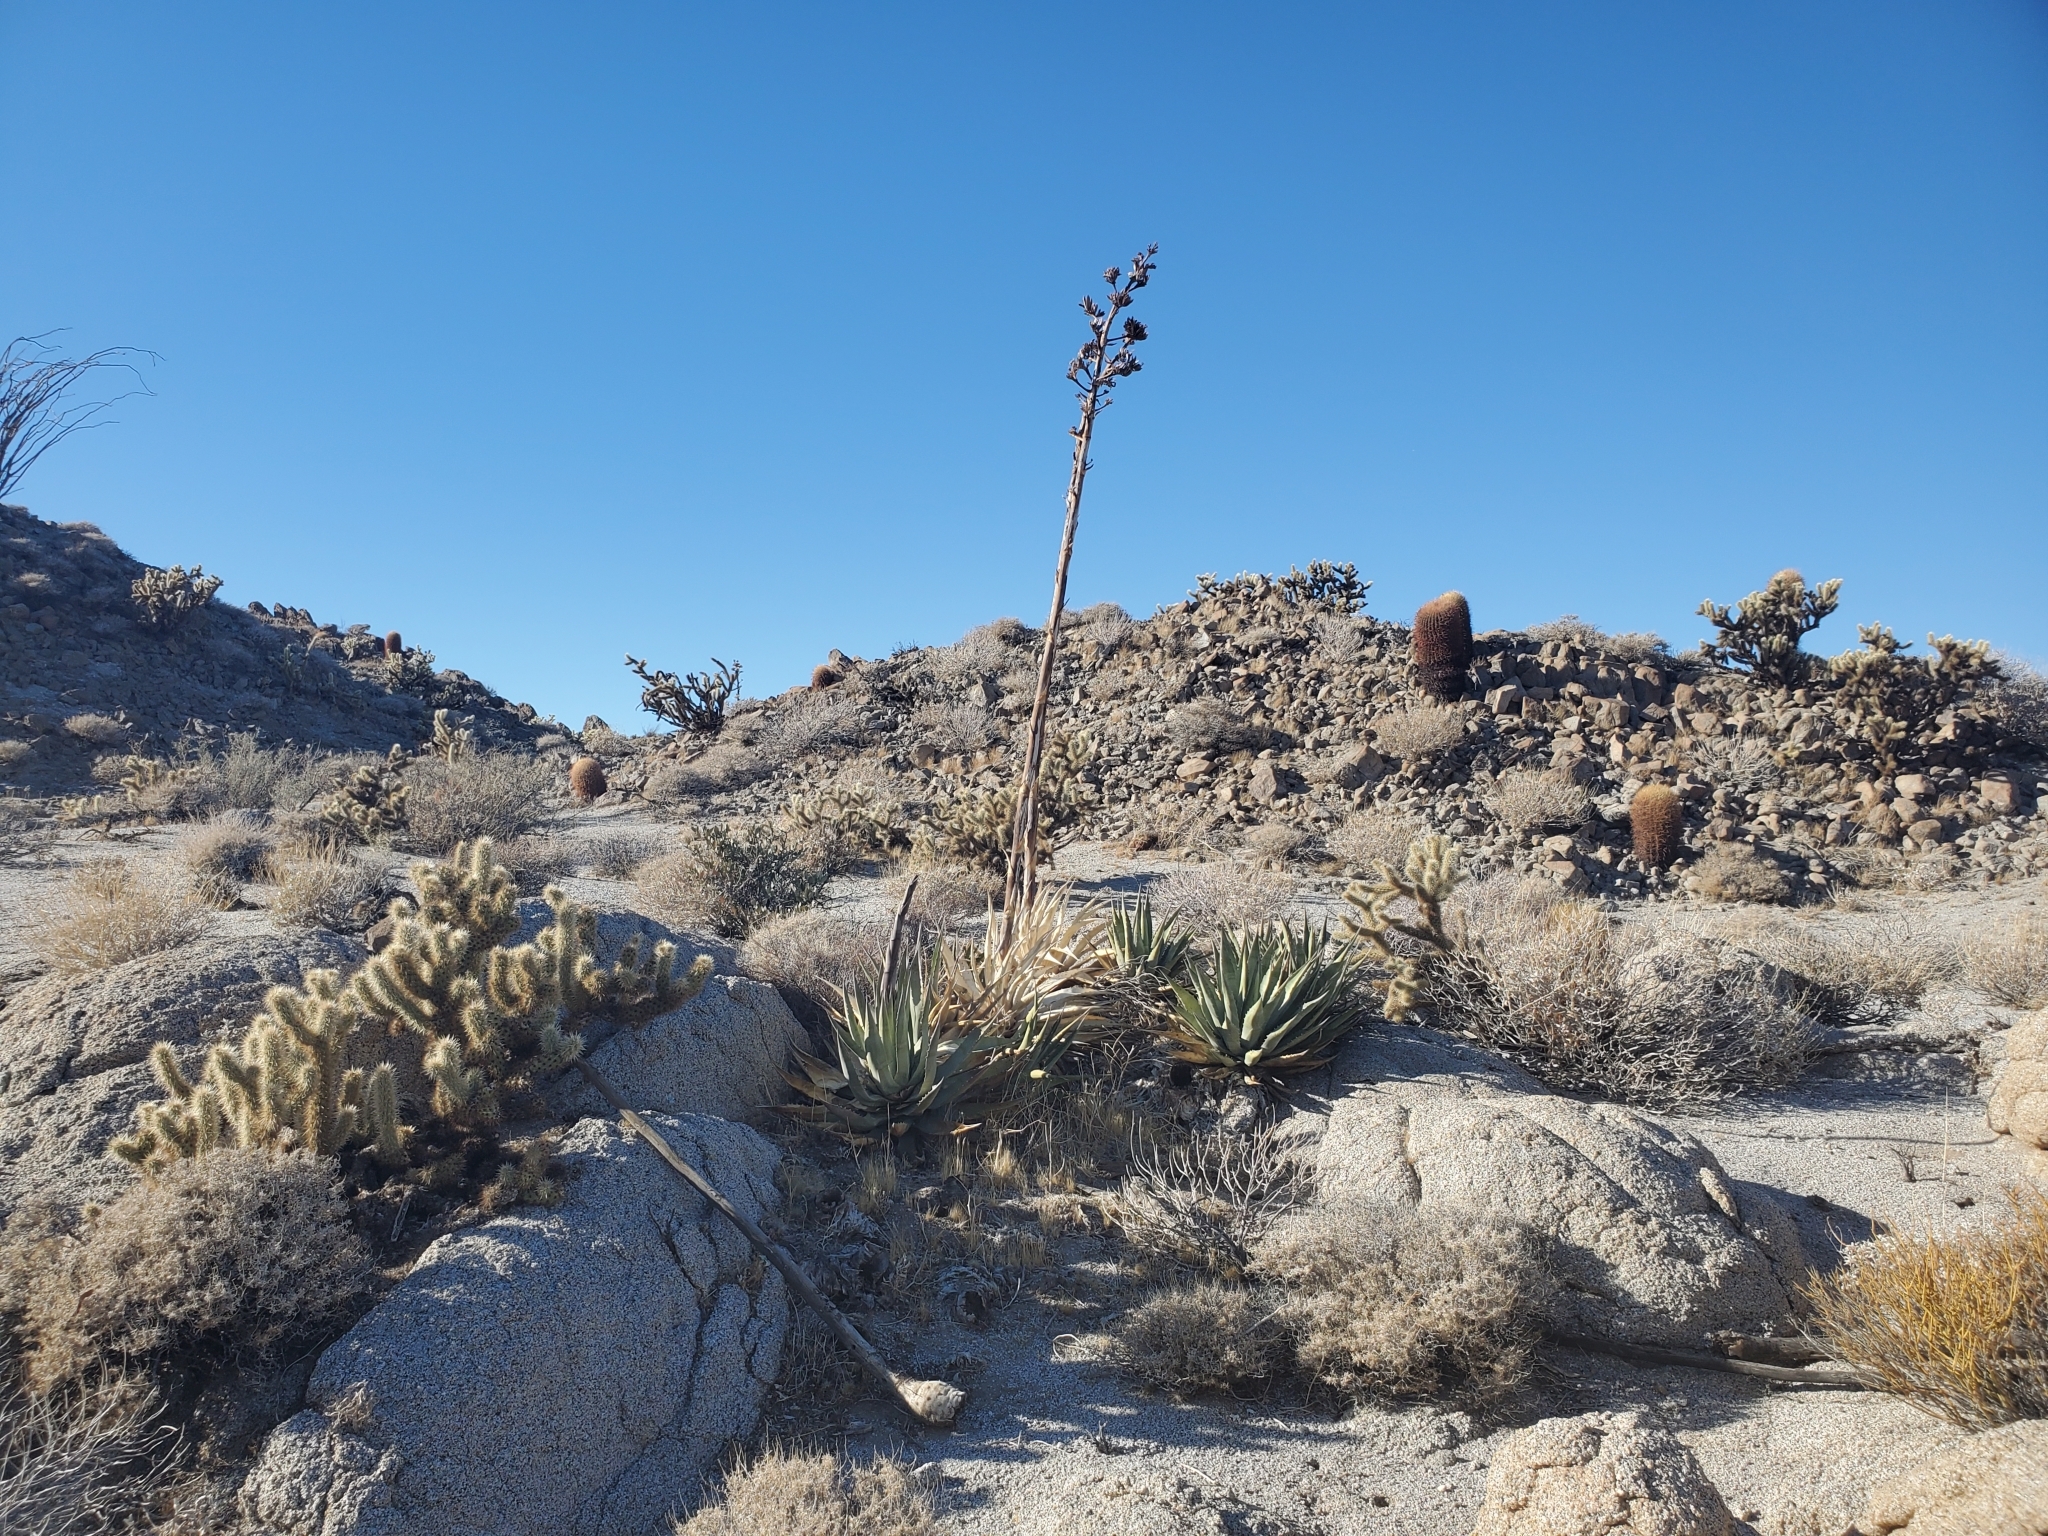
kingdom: Plantae
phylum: Tracheophyta
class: Liliopsida
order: Asparagales
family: Asparagaceae
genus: Agave
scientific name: Agave deserti
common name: Desert agave
